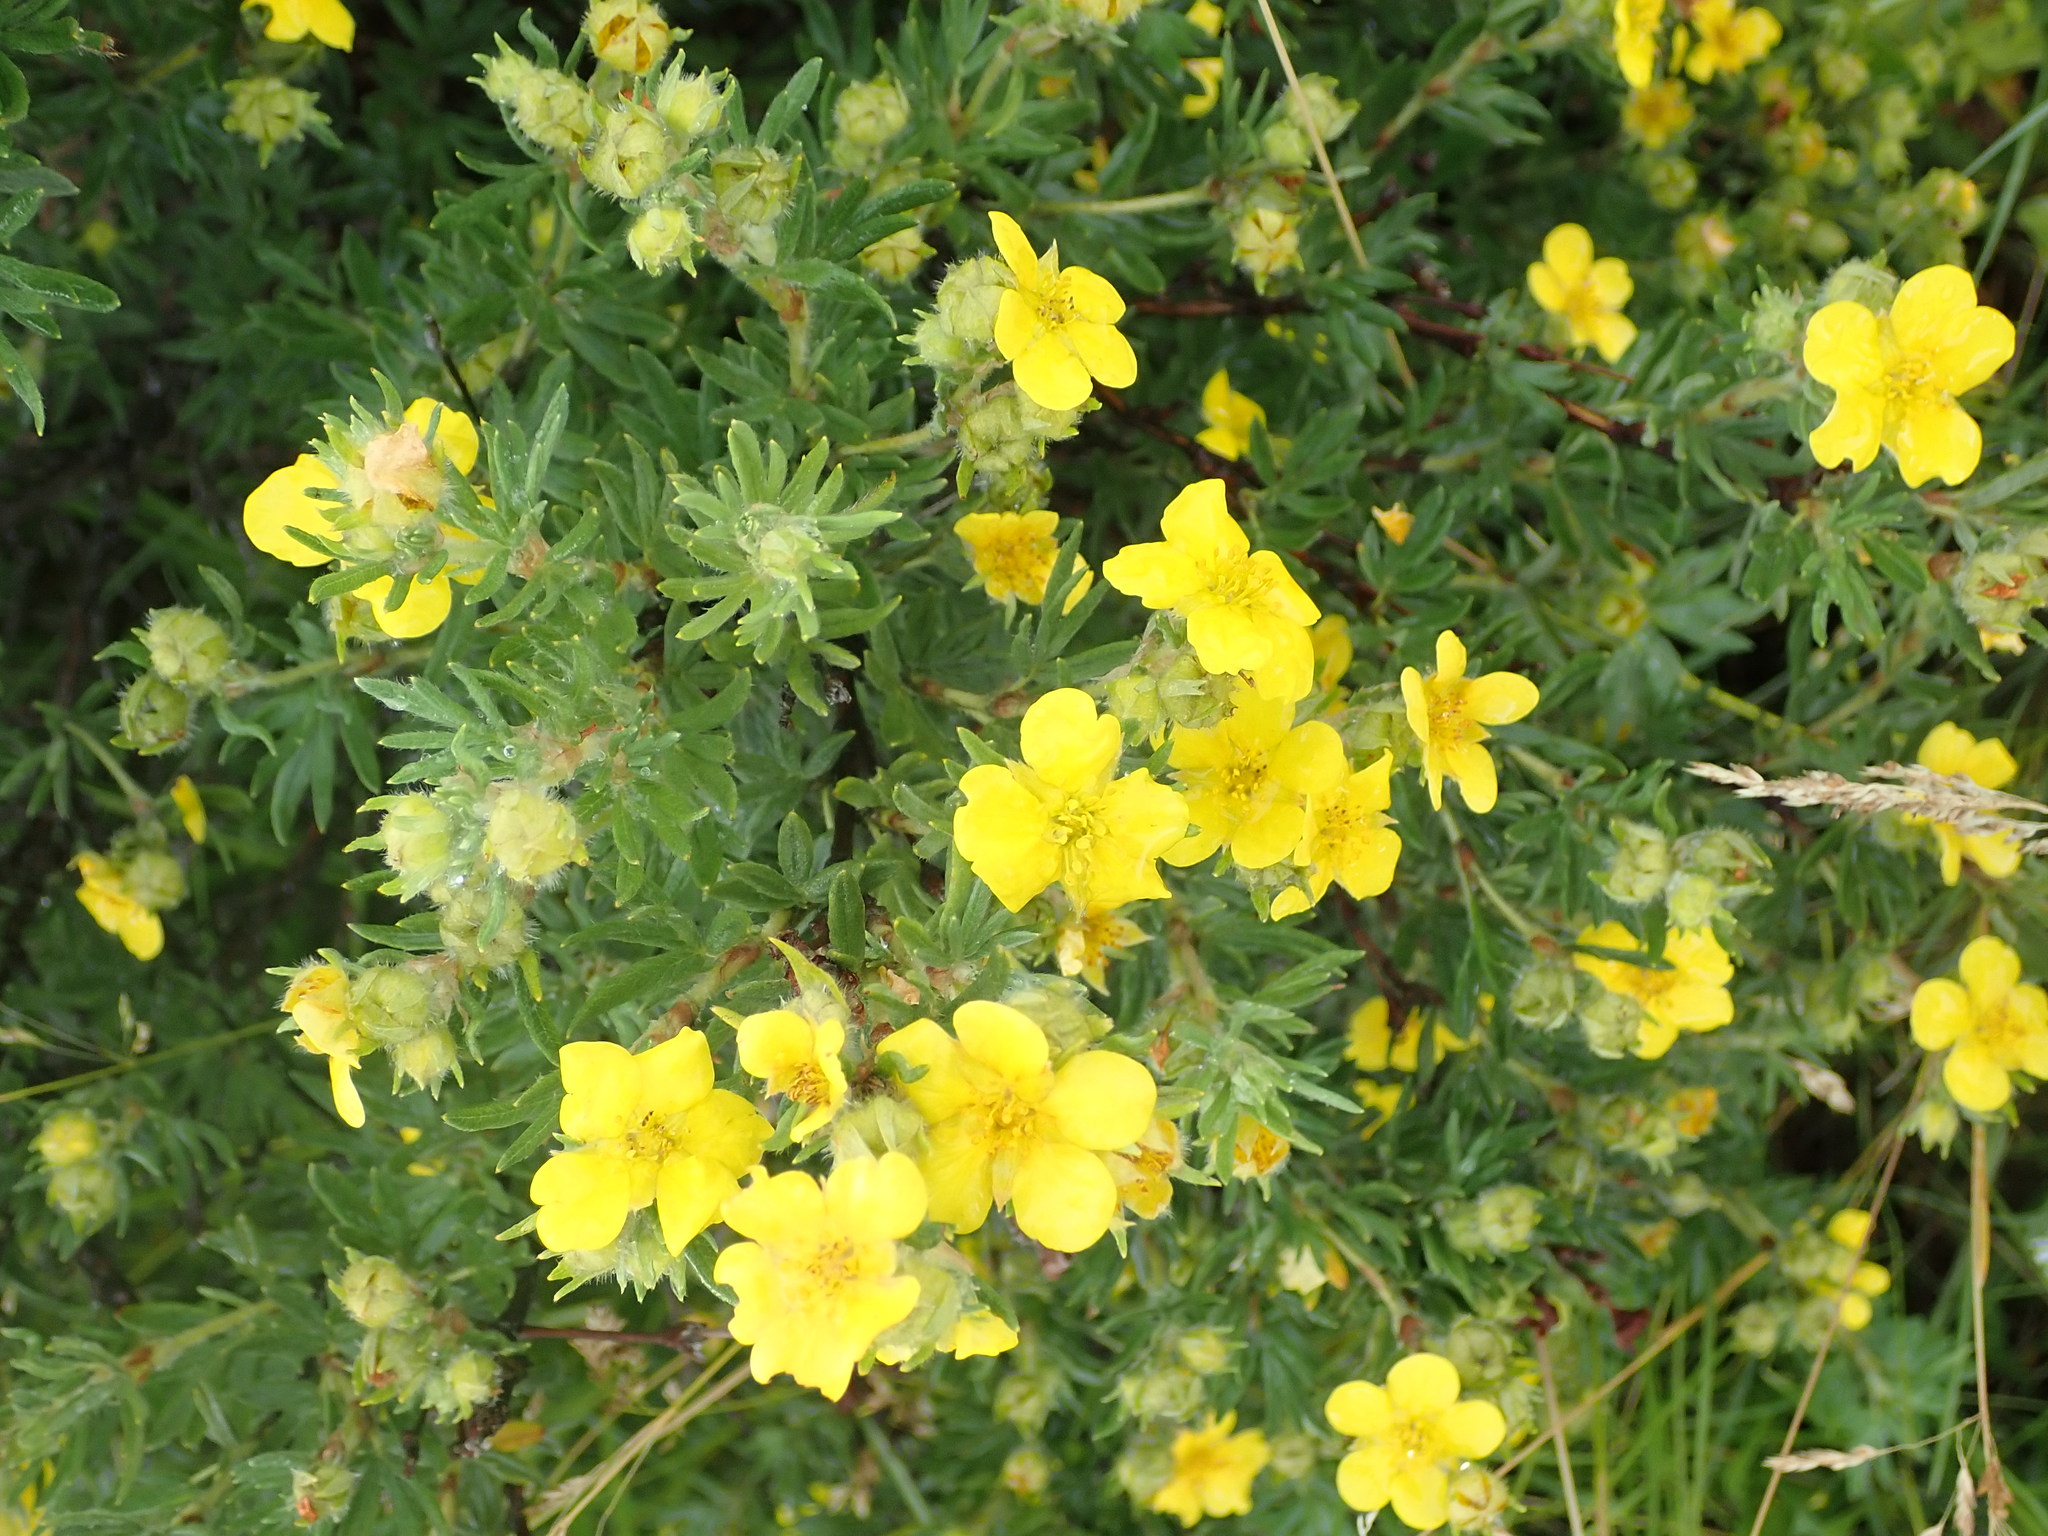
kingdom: Plantae
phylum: Tracheophyta
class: Magnoliopsida
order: Rosales
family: Rosaceae
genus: Dasiphora
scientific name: Dasiphora fruticosa
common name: Shrubby cinquefoil
